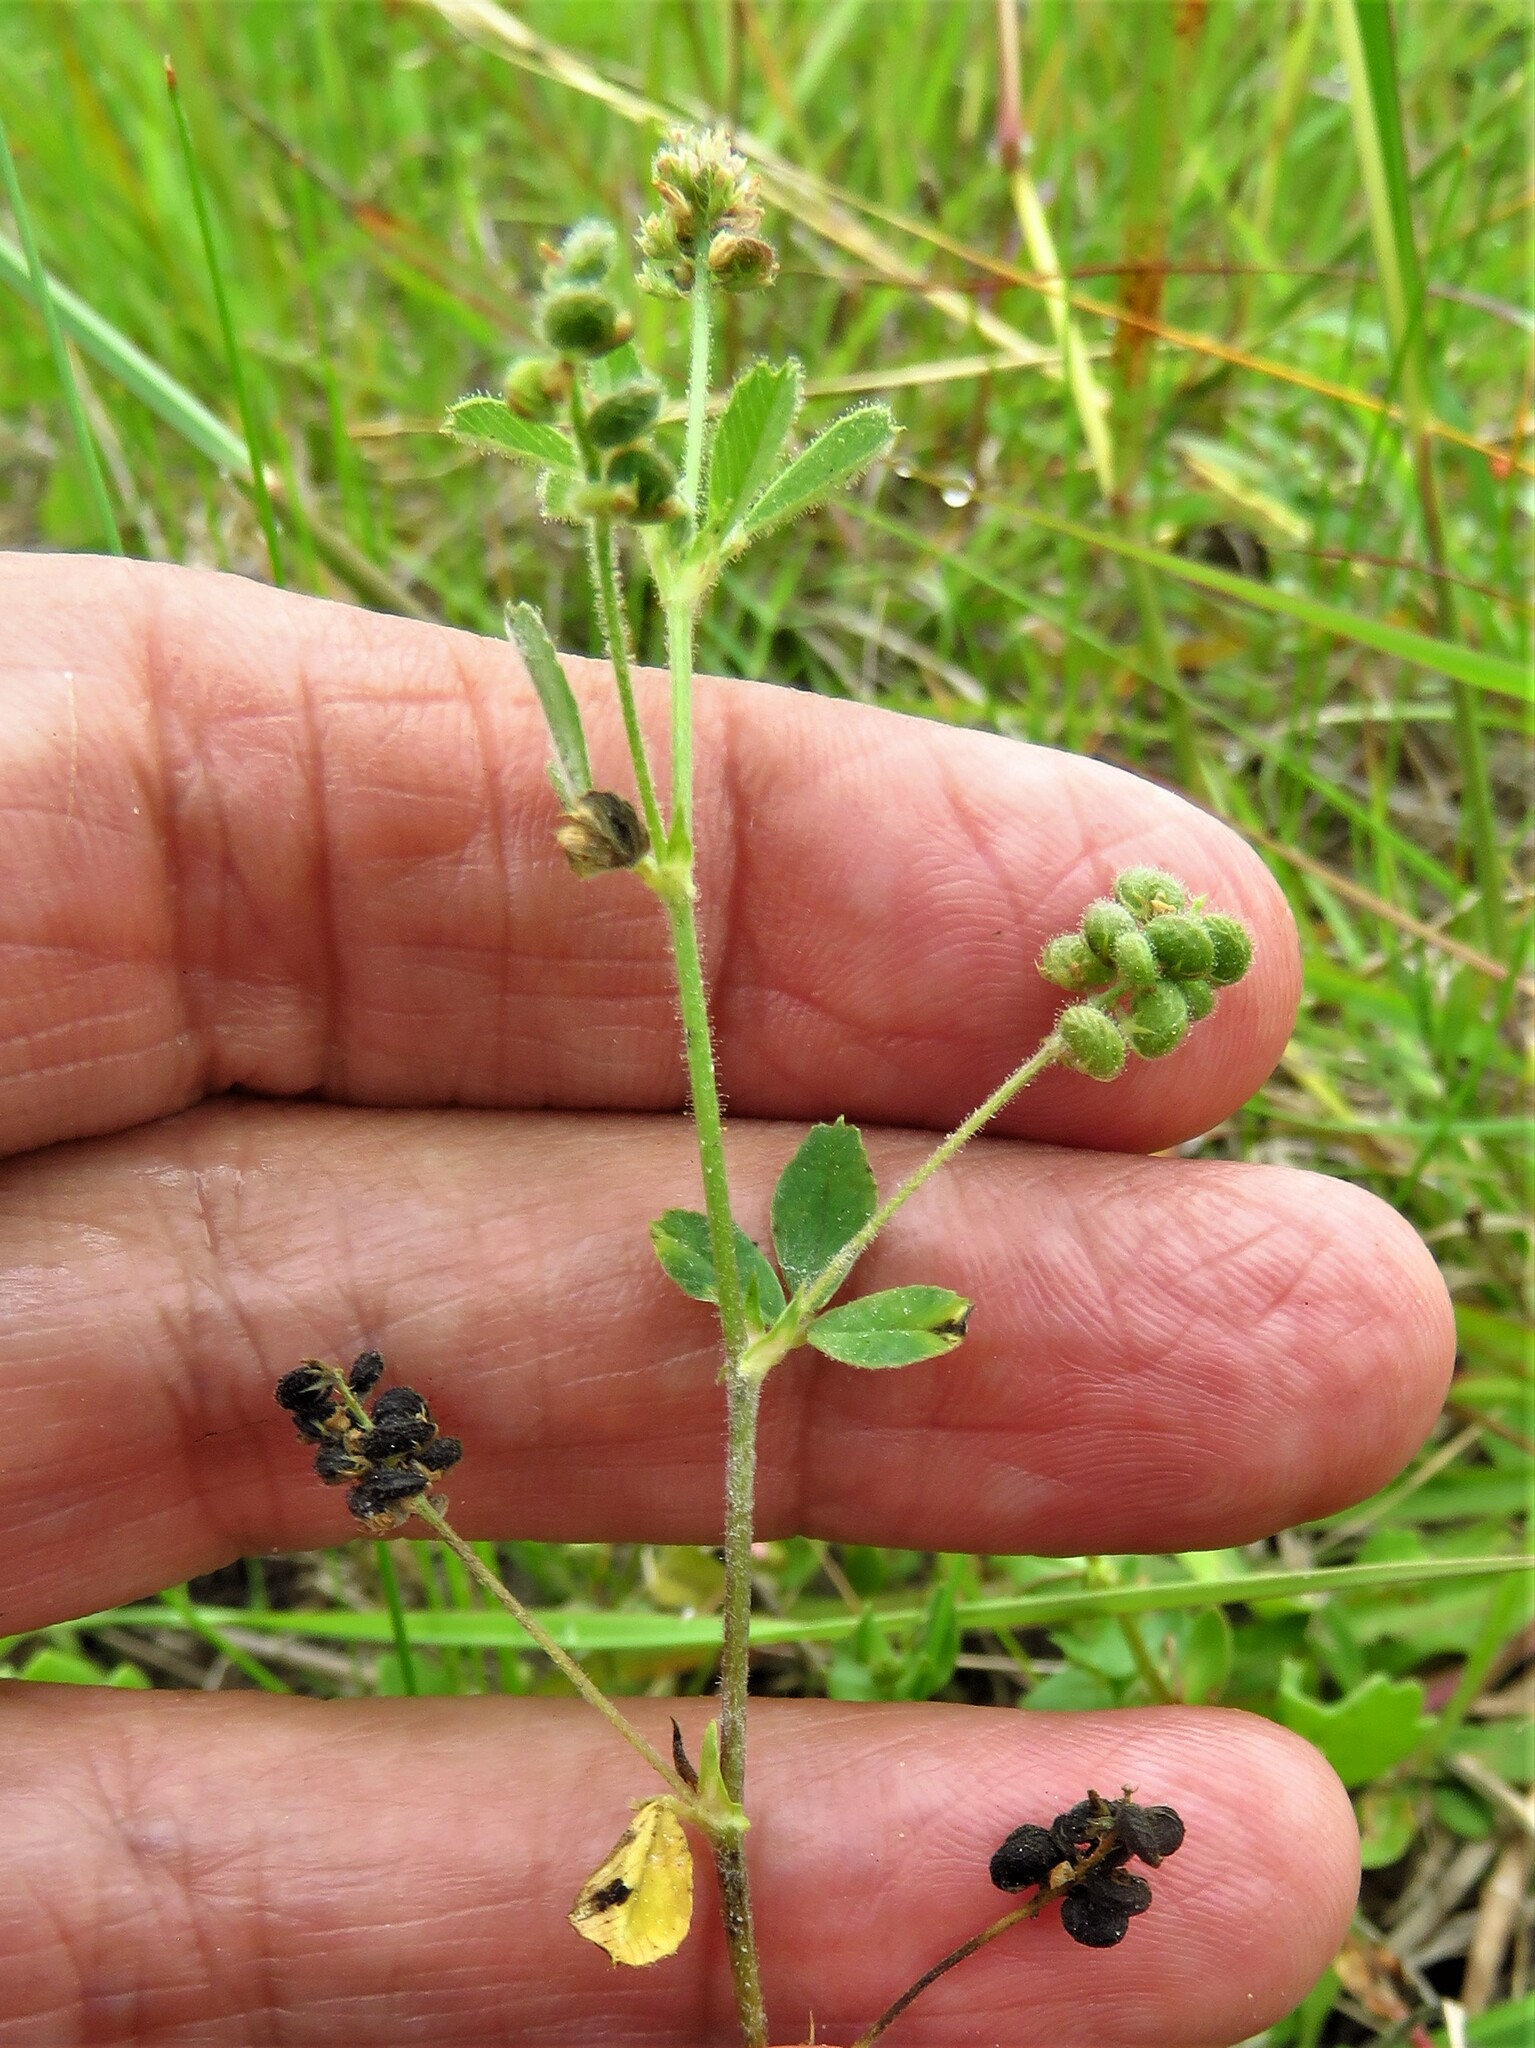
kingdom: Plantae
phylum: Tracheophyta
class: Magnoliopsida
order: Fabales
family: Fabaceae
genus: Medicago
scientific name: Medicago lupulina
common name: Black medick
